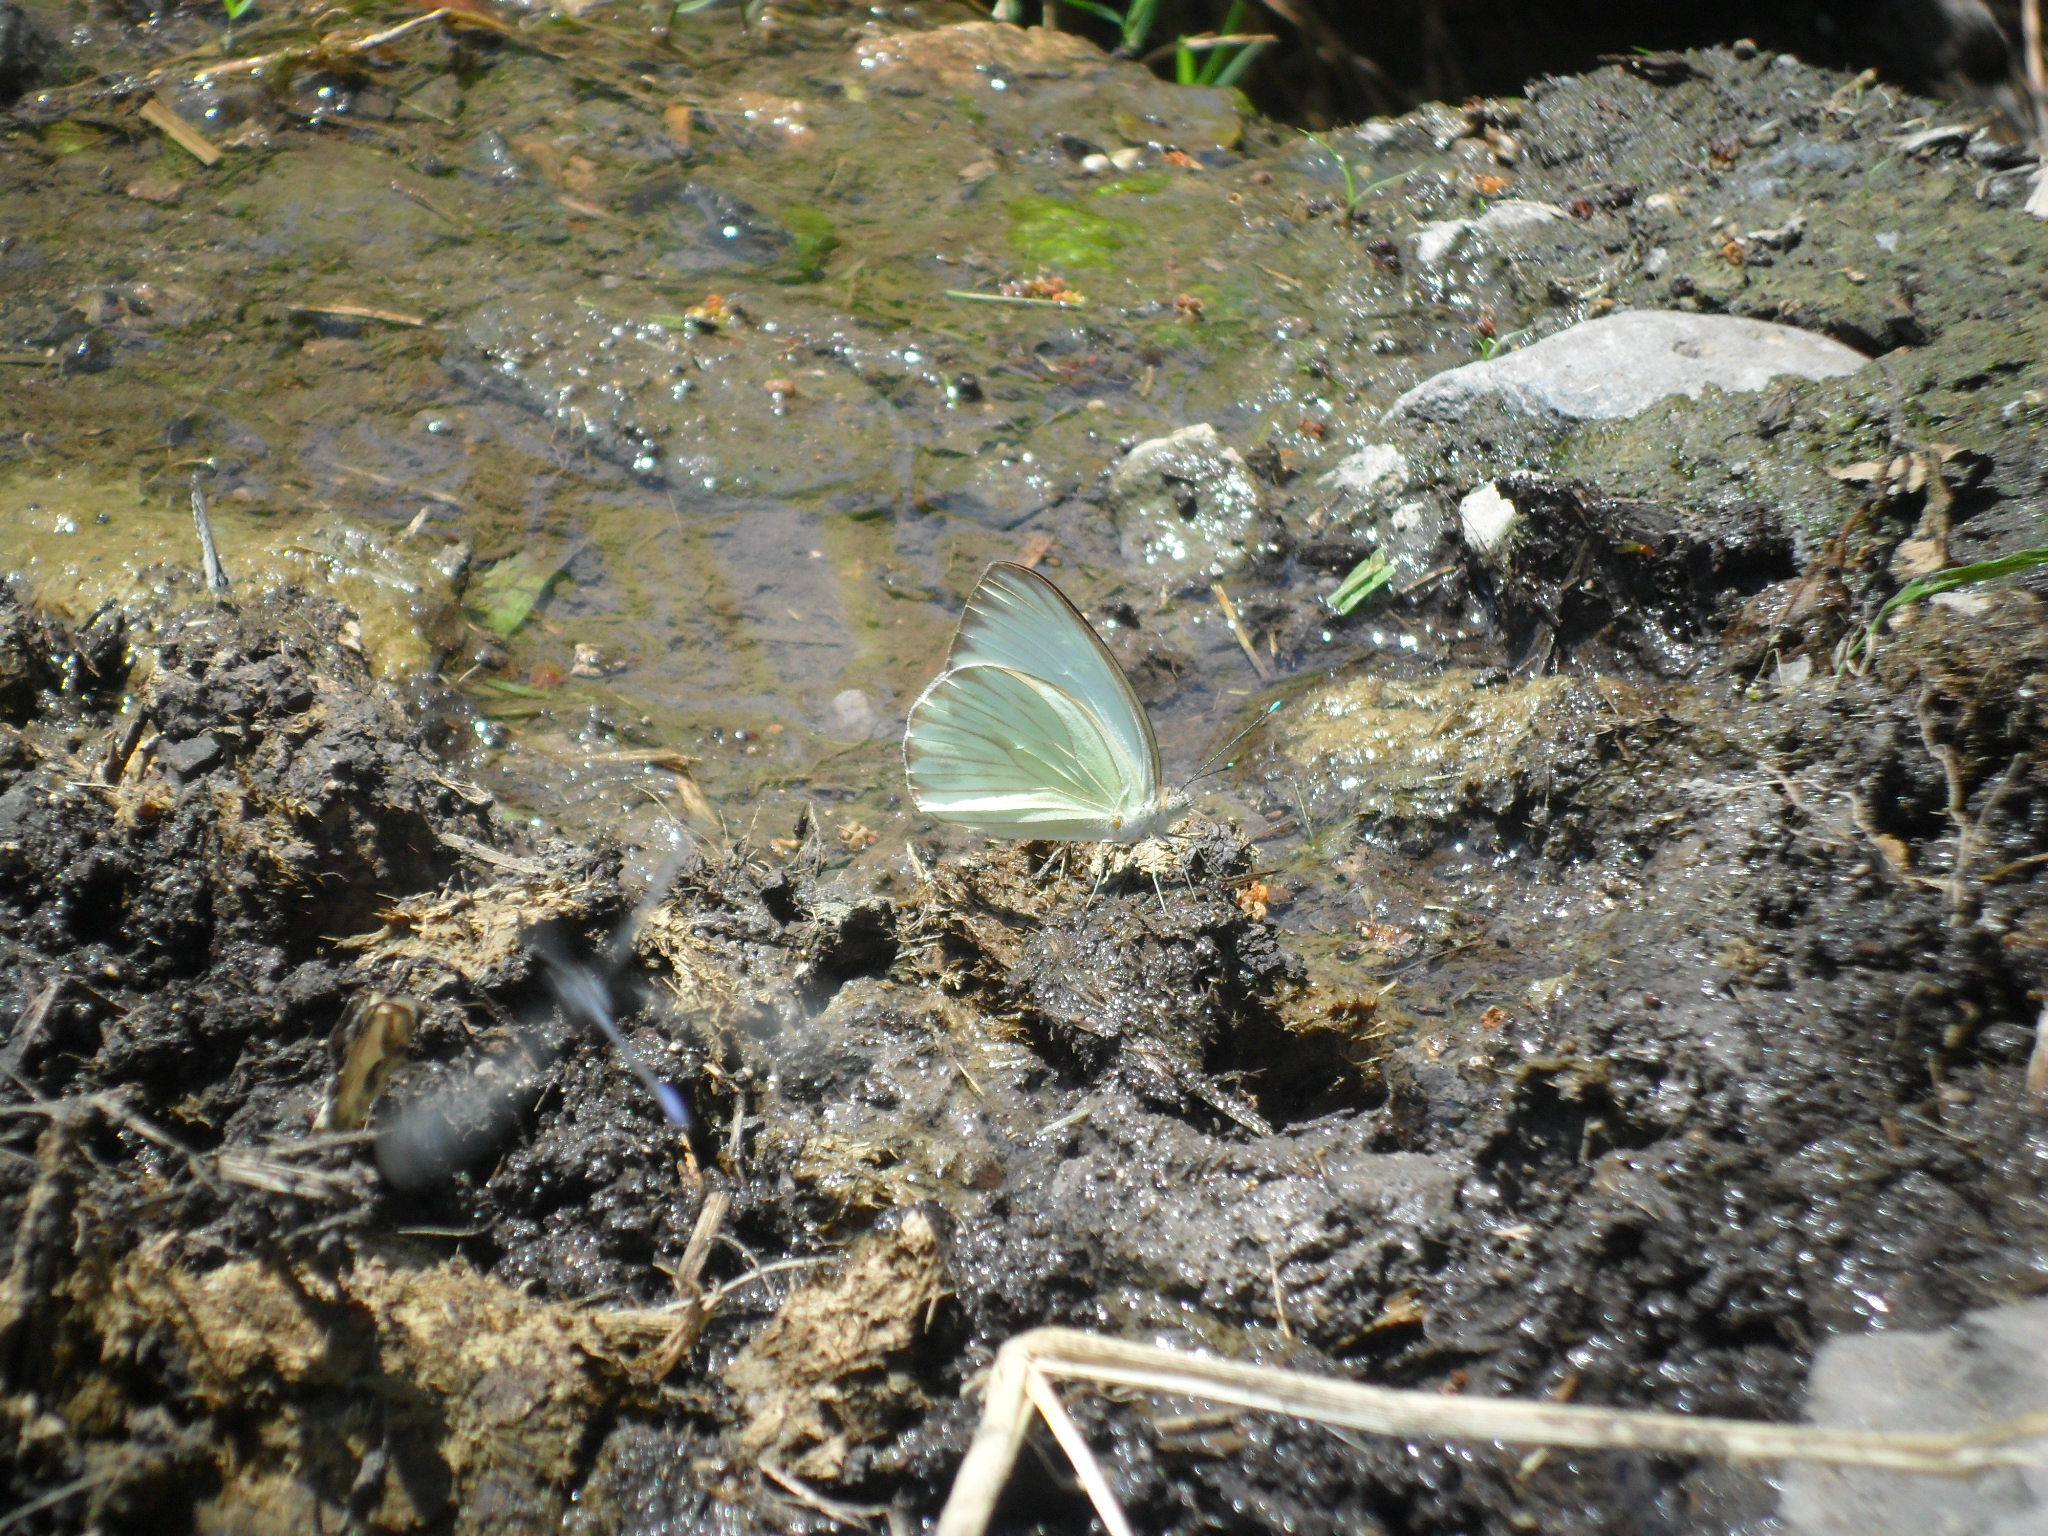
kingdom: Animalia
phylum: Arthropoda
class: Insecta
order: Lepidoptera
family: Pieridae
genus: Ascia
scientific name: Ascia monuste
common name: Great southern white
